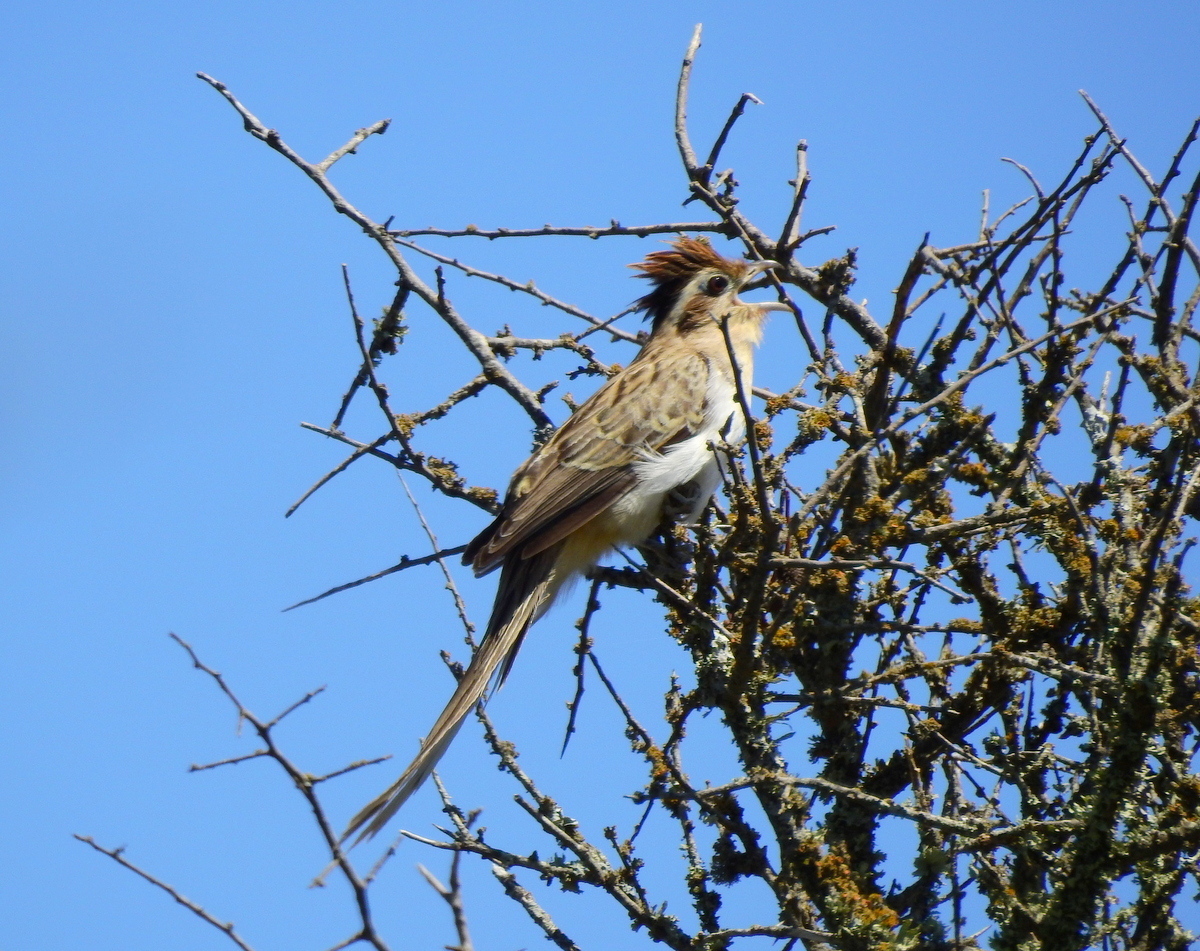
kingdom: Animalia
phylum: Chordata
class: Aves
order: Cuculiformes
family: Cuculidae
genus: Tapera
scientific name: Tapera naevia
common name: Striped cuckoo
